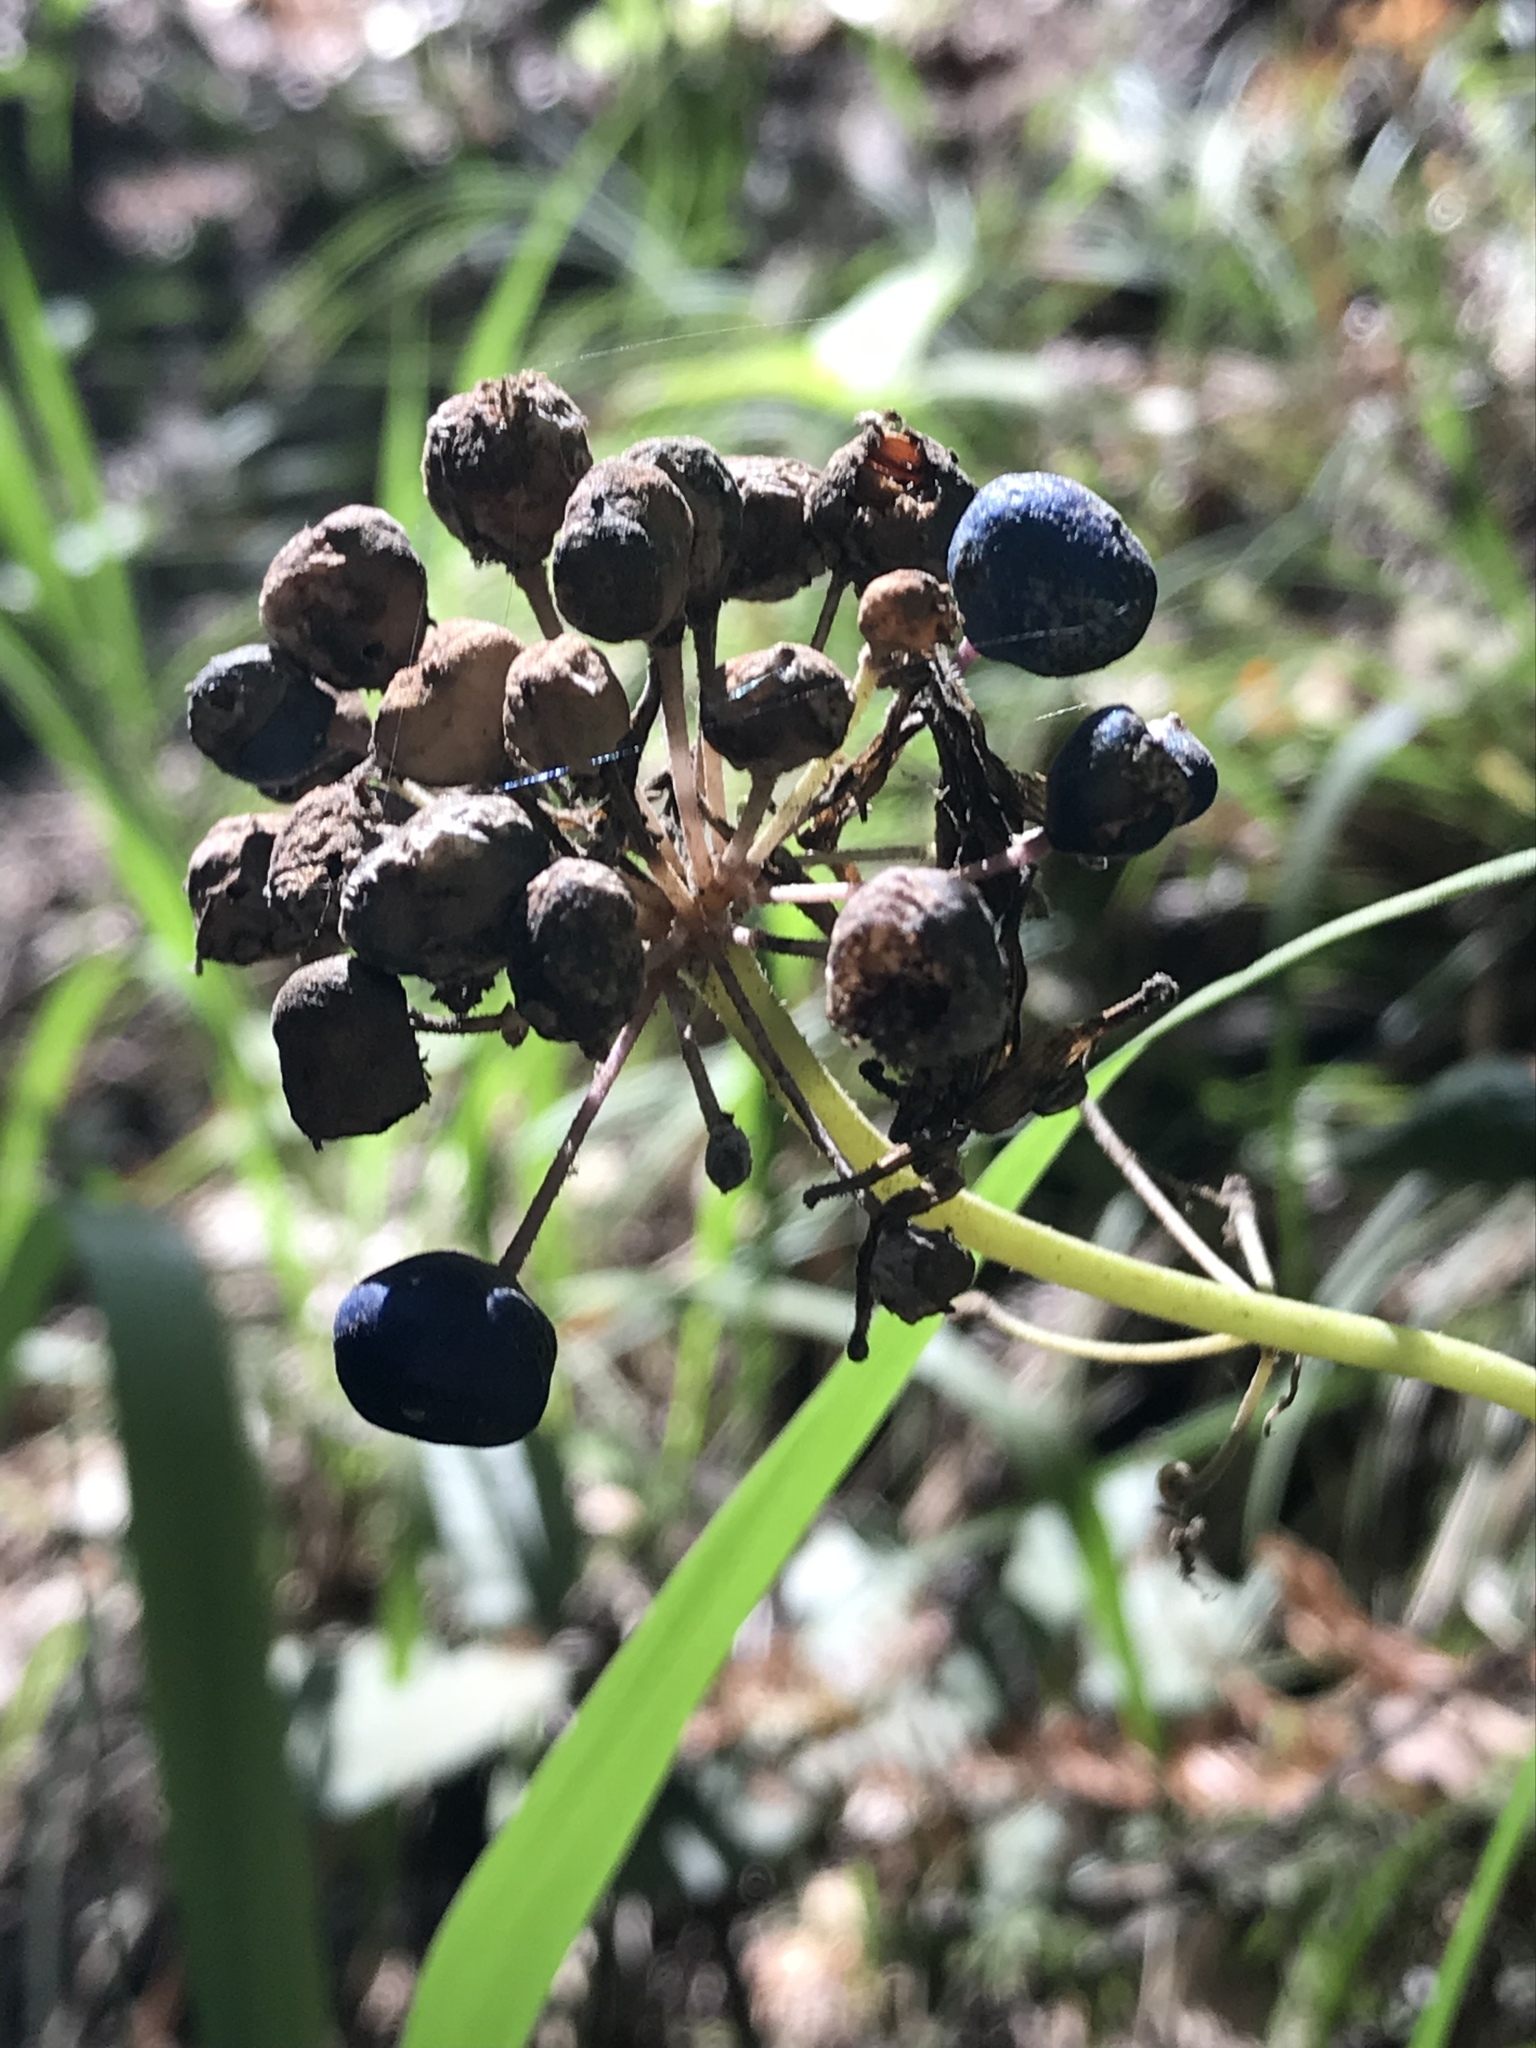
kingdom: Plantae
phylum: Tracheophyta
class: Liliopsida
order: Liliales
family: Liliaceae
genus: Clintonia
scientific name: Clintonia andrewsiana
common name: Red clintonia
